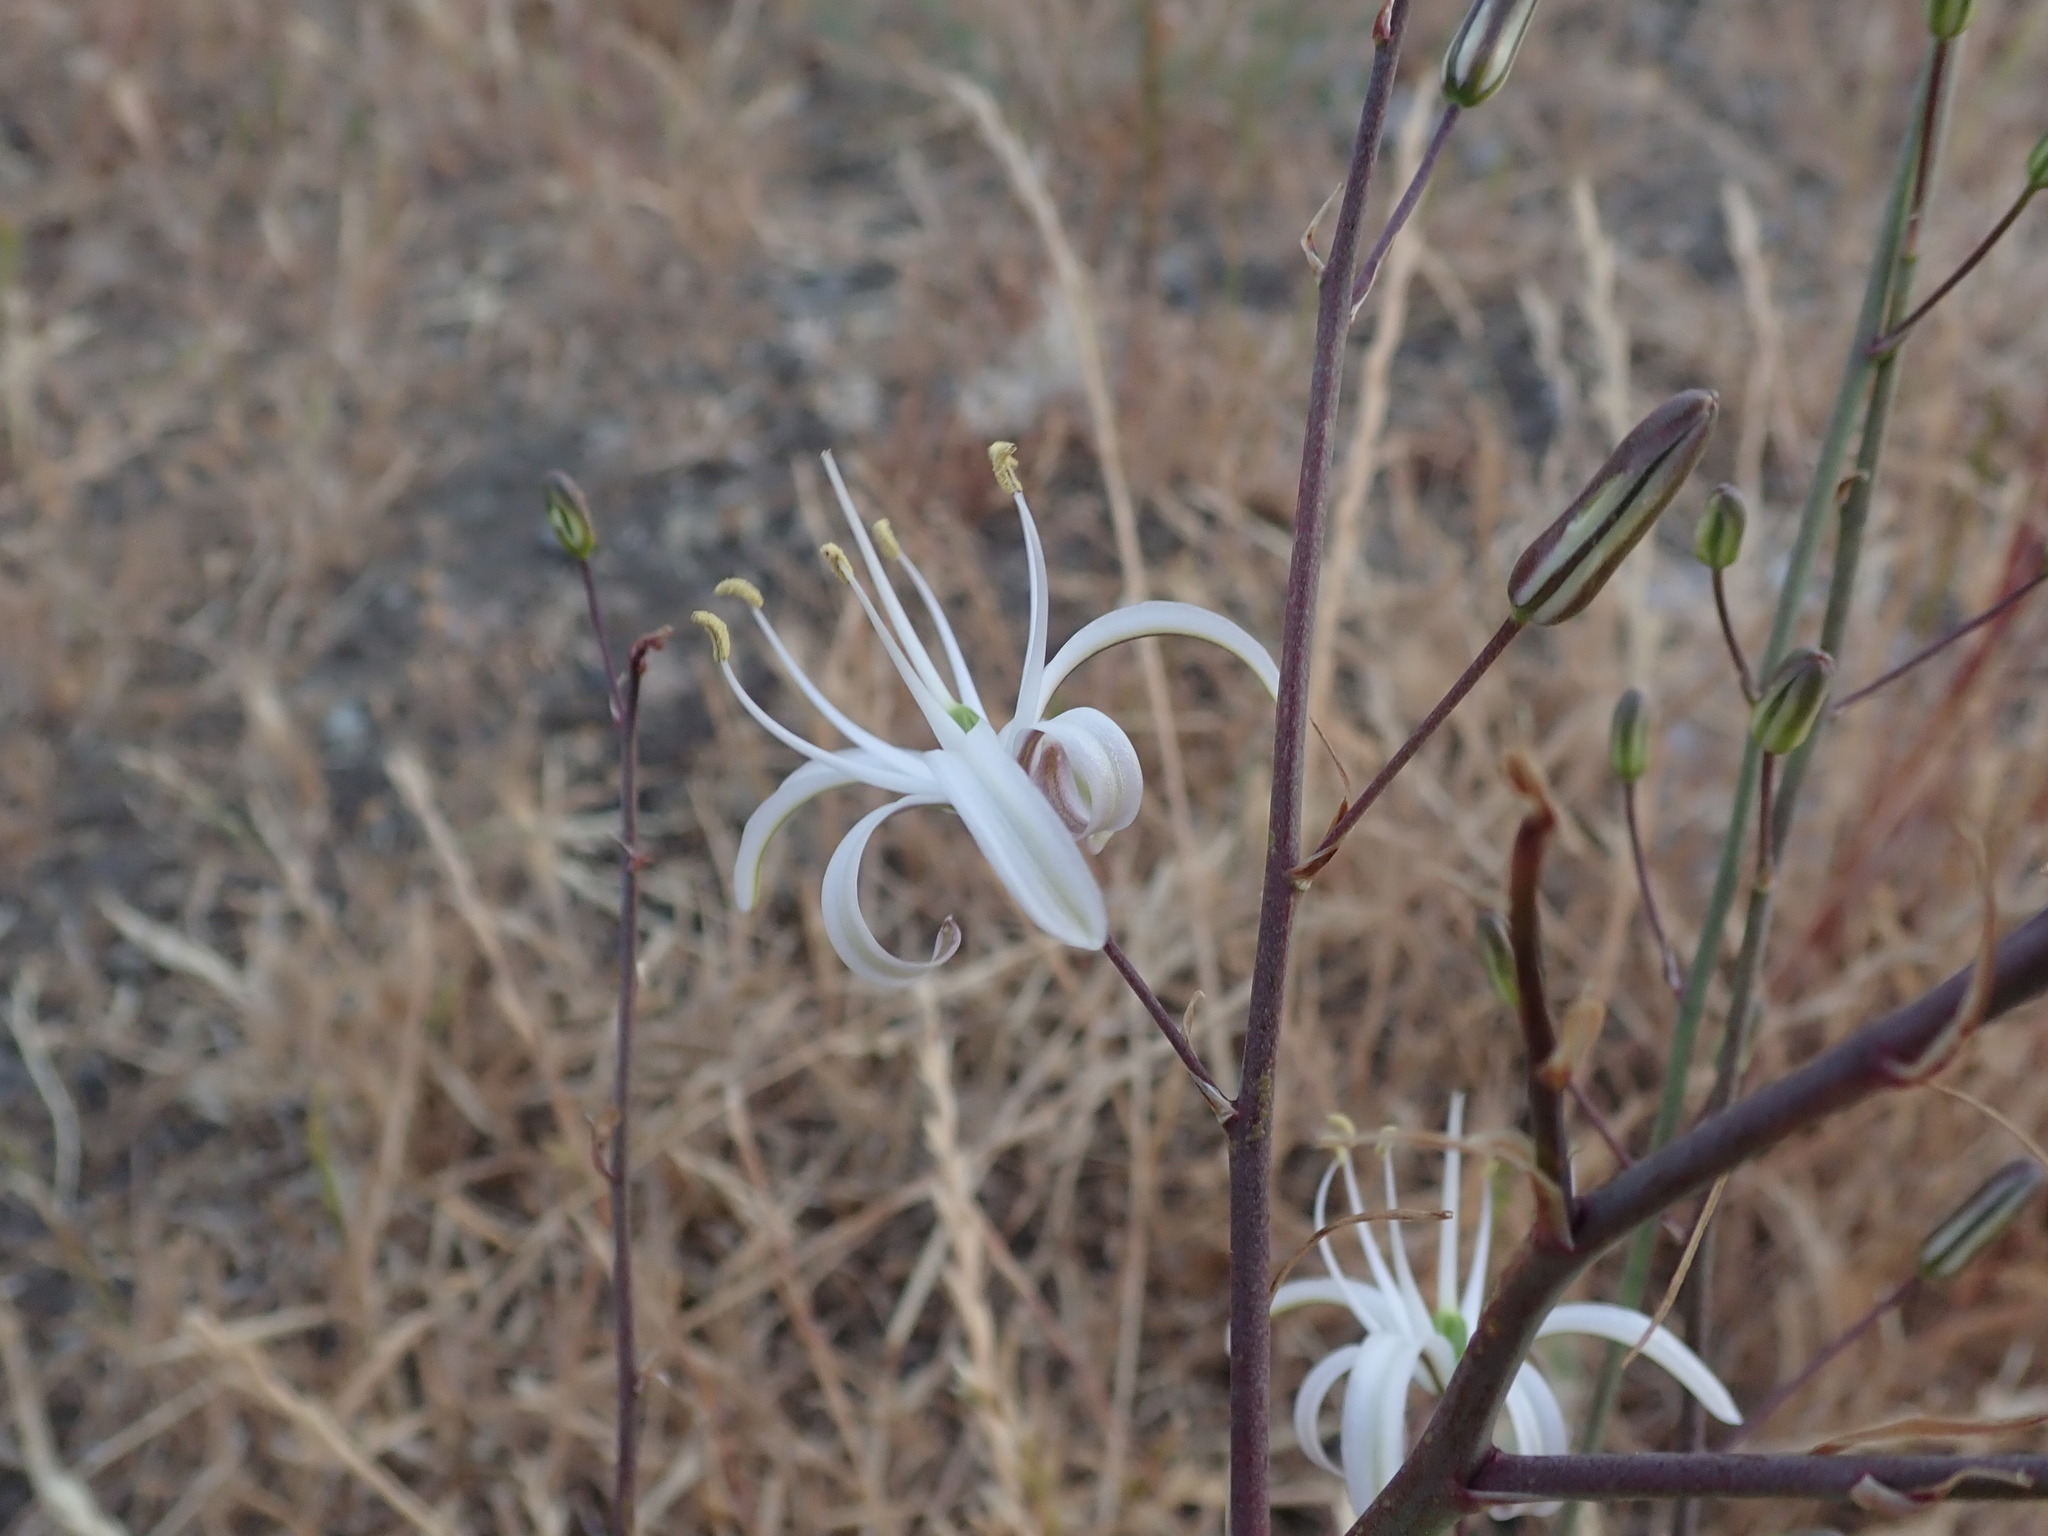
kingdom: Plantae
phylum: Tracheophyta
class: Liliopsida
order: Asparagales
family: Asparagaceae
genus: Chlorogalum
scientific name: Chlorogalum pomeridianum
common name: Amole
